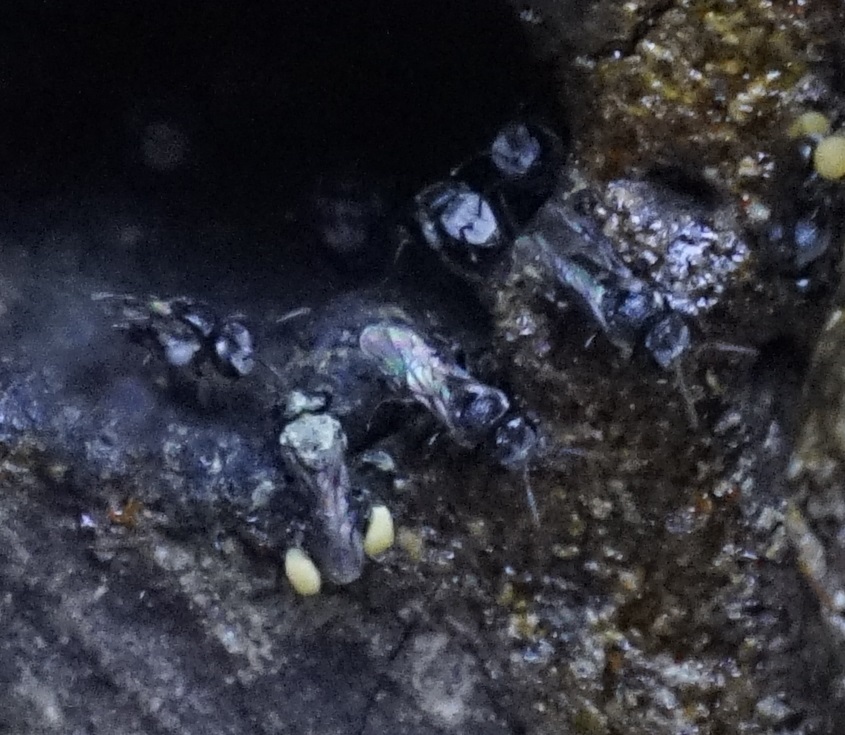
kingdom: Animalia
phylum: Arthropoda
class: Insecta
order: Hymenoptera
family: Apidae
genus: Tetragonula
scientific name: Tetragonula carbonaria
